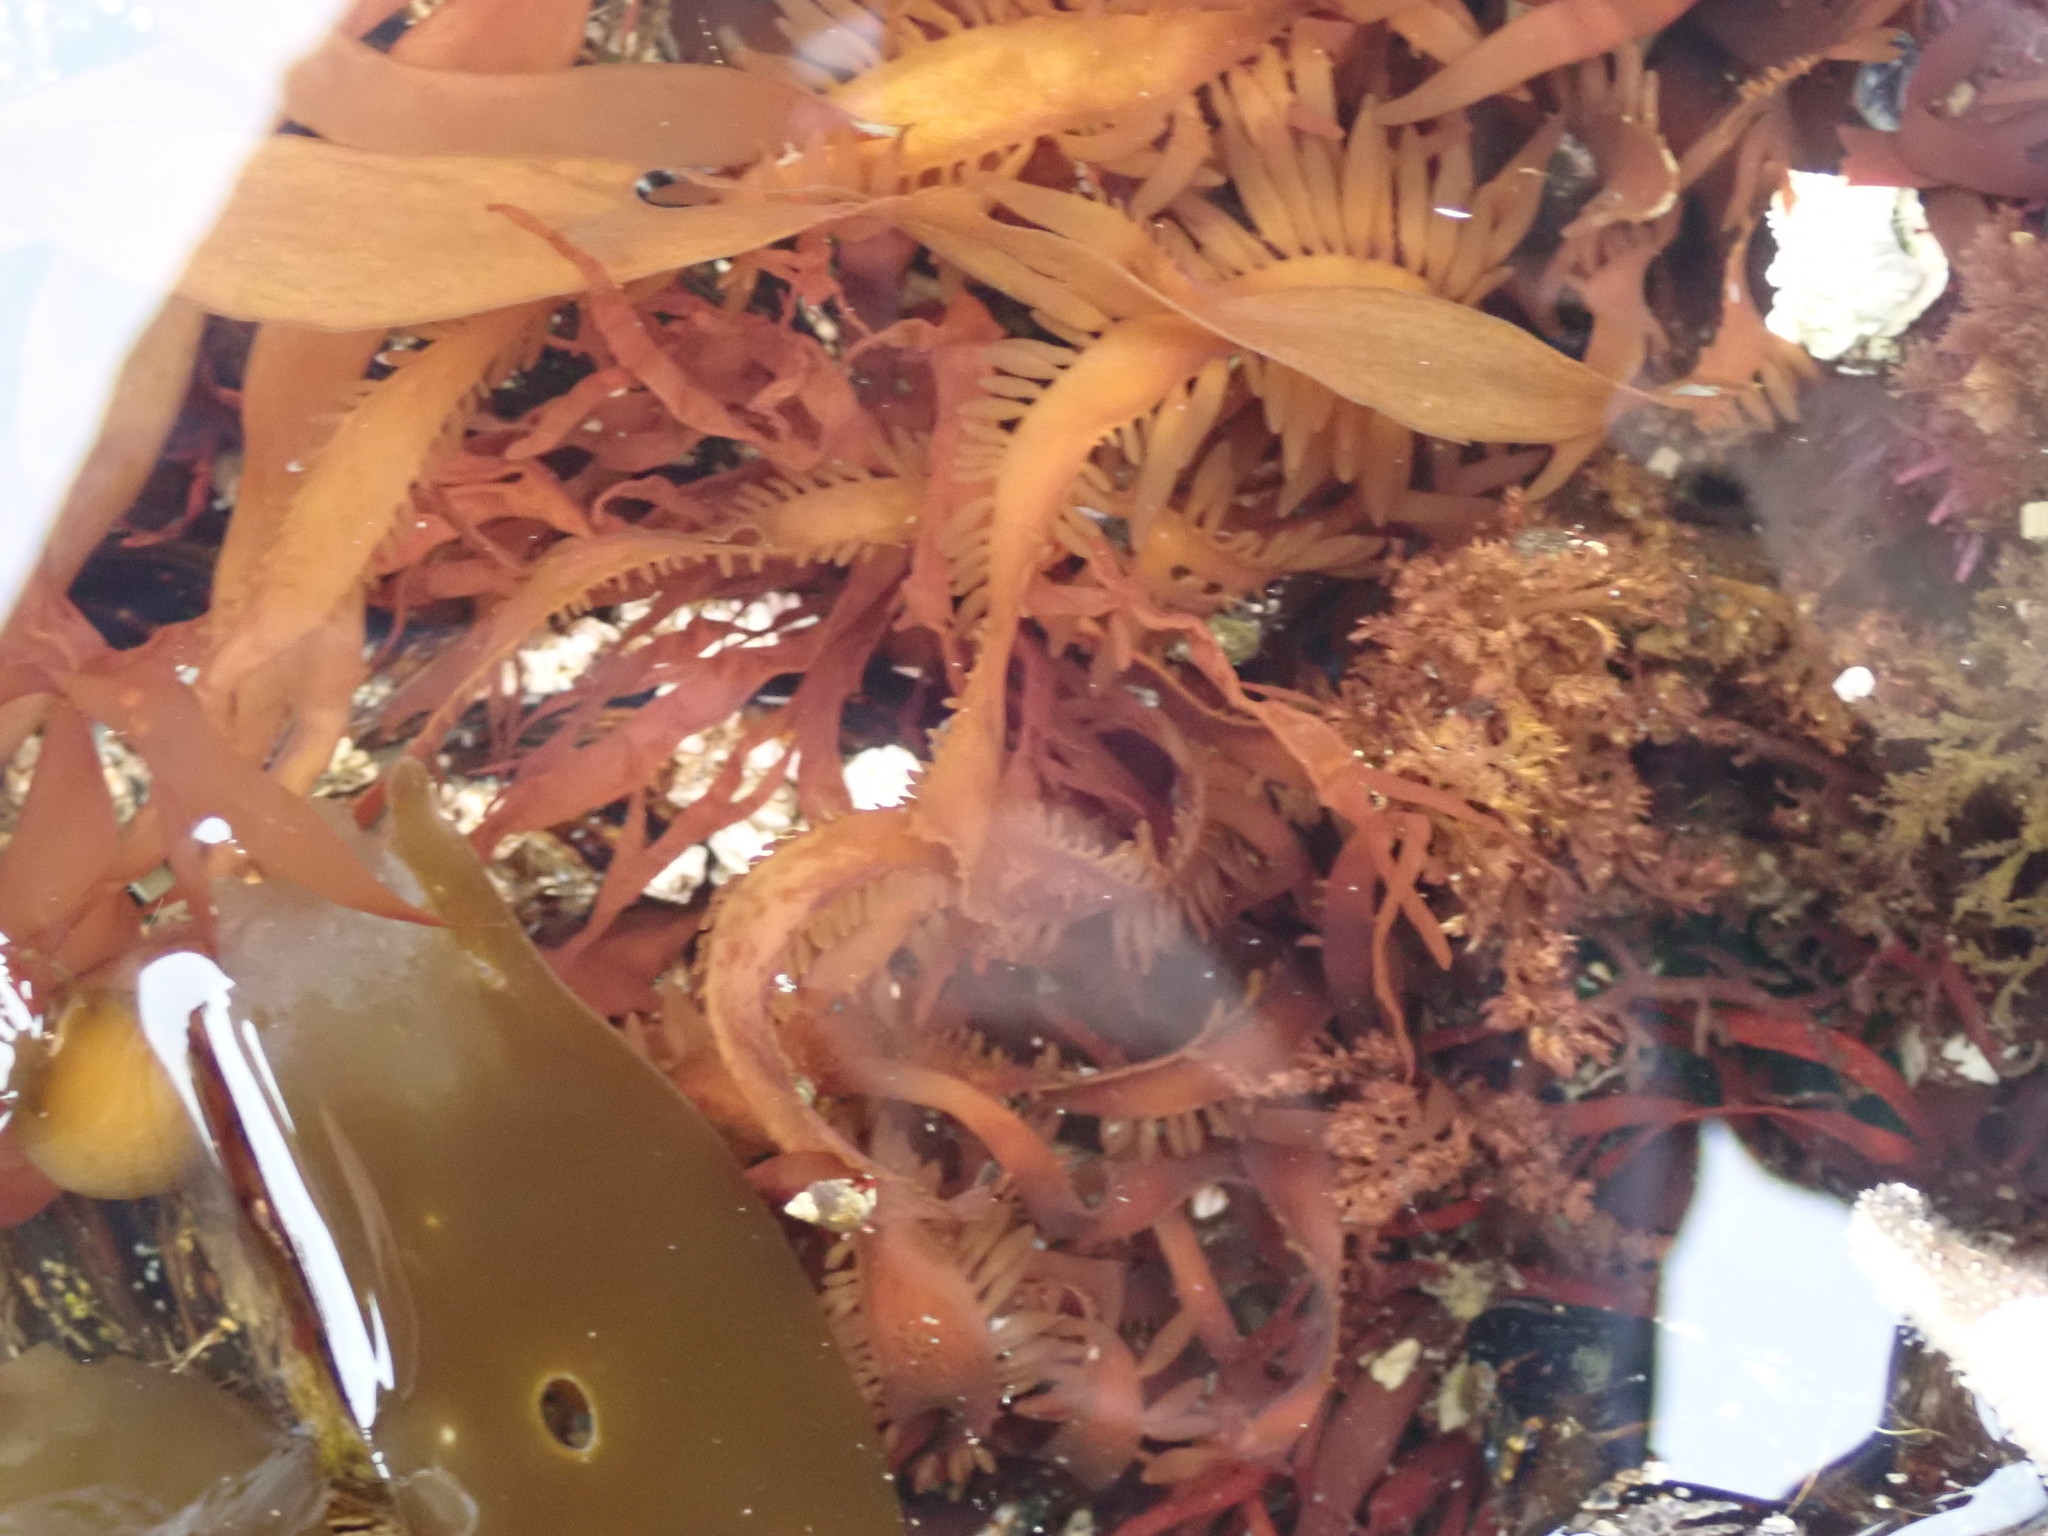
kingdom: Plantae
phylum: Rhodophyta
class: Florideophyceae
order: Halymeniales
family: Halymeniaceae
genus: Grateloupia
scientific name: Grateloupia Prionitis lanceolata
